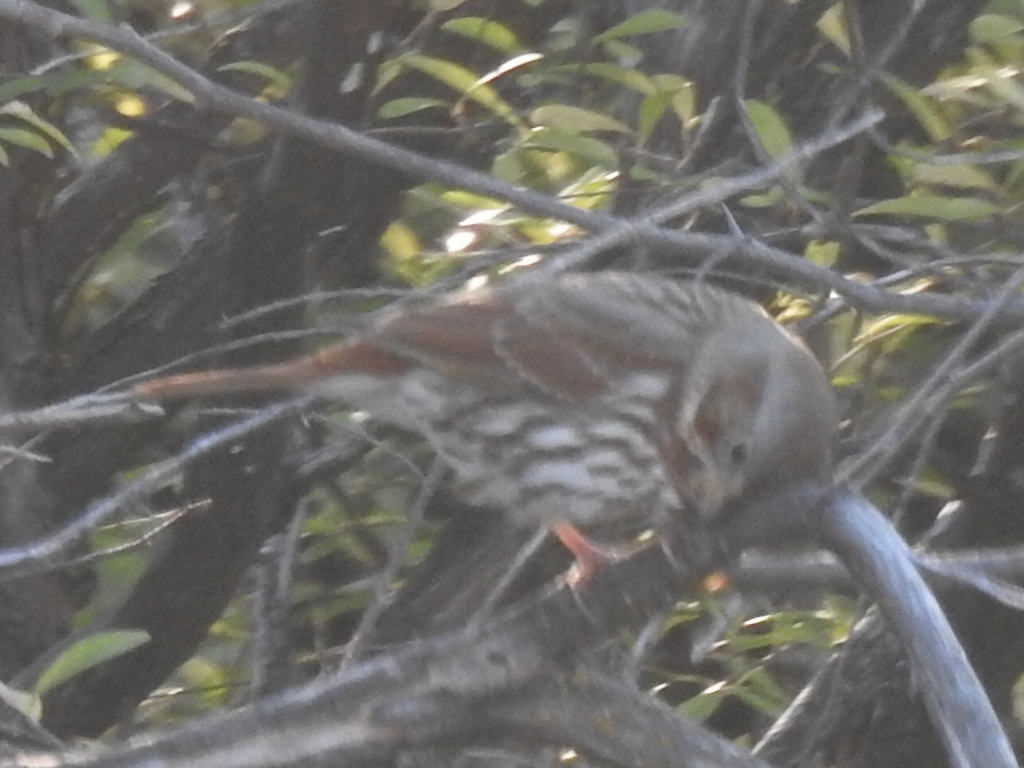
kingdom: Animalia
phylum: Chordata
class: Aves
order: Passeriformes
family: Passerellidae
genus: Passerella
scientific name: Passerella iliaca
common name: Fox sparrow
